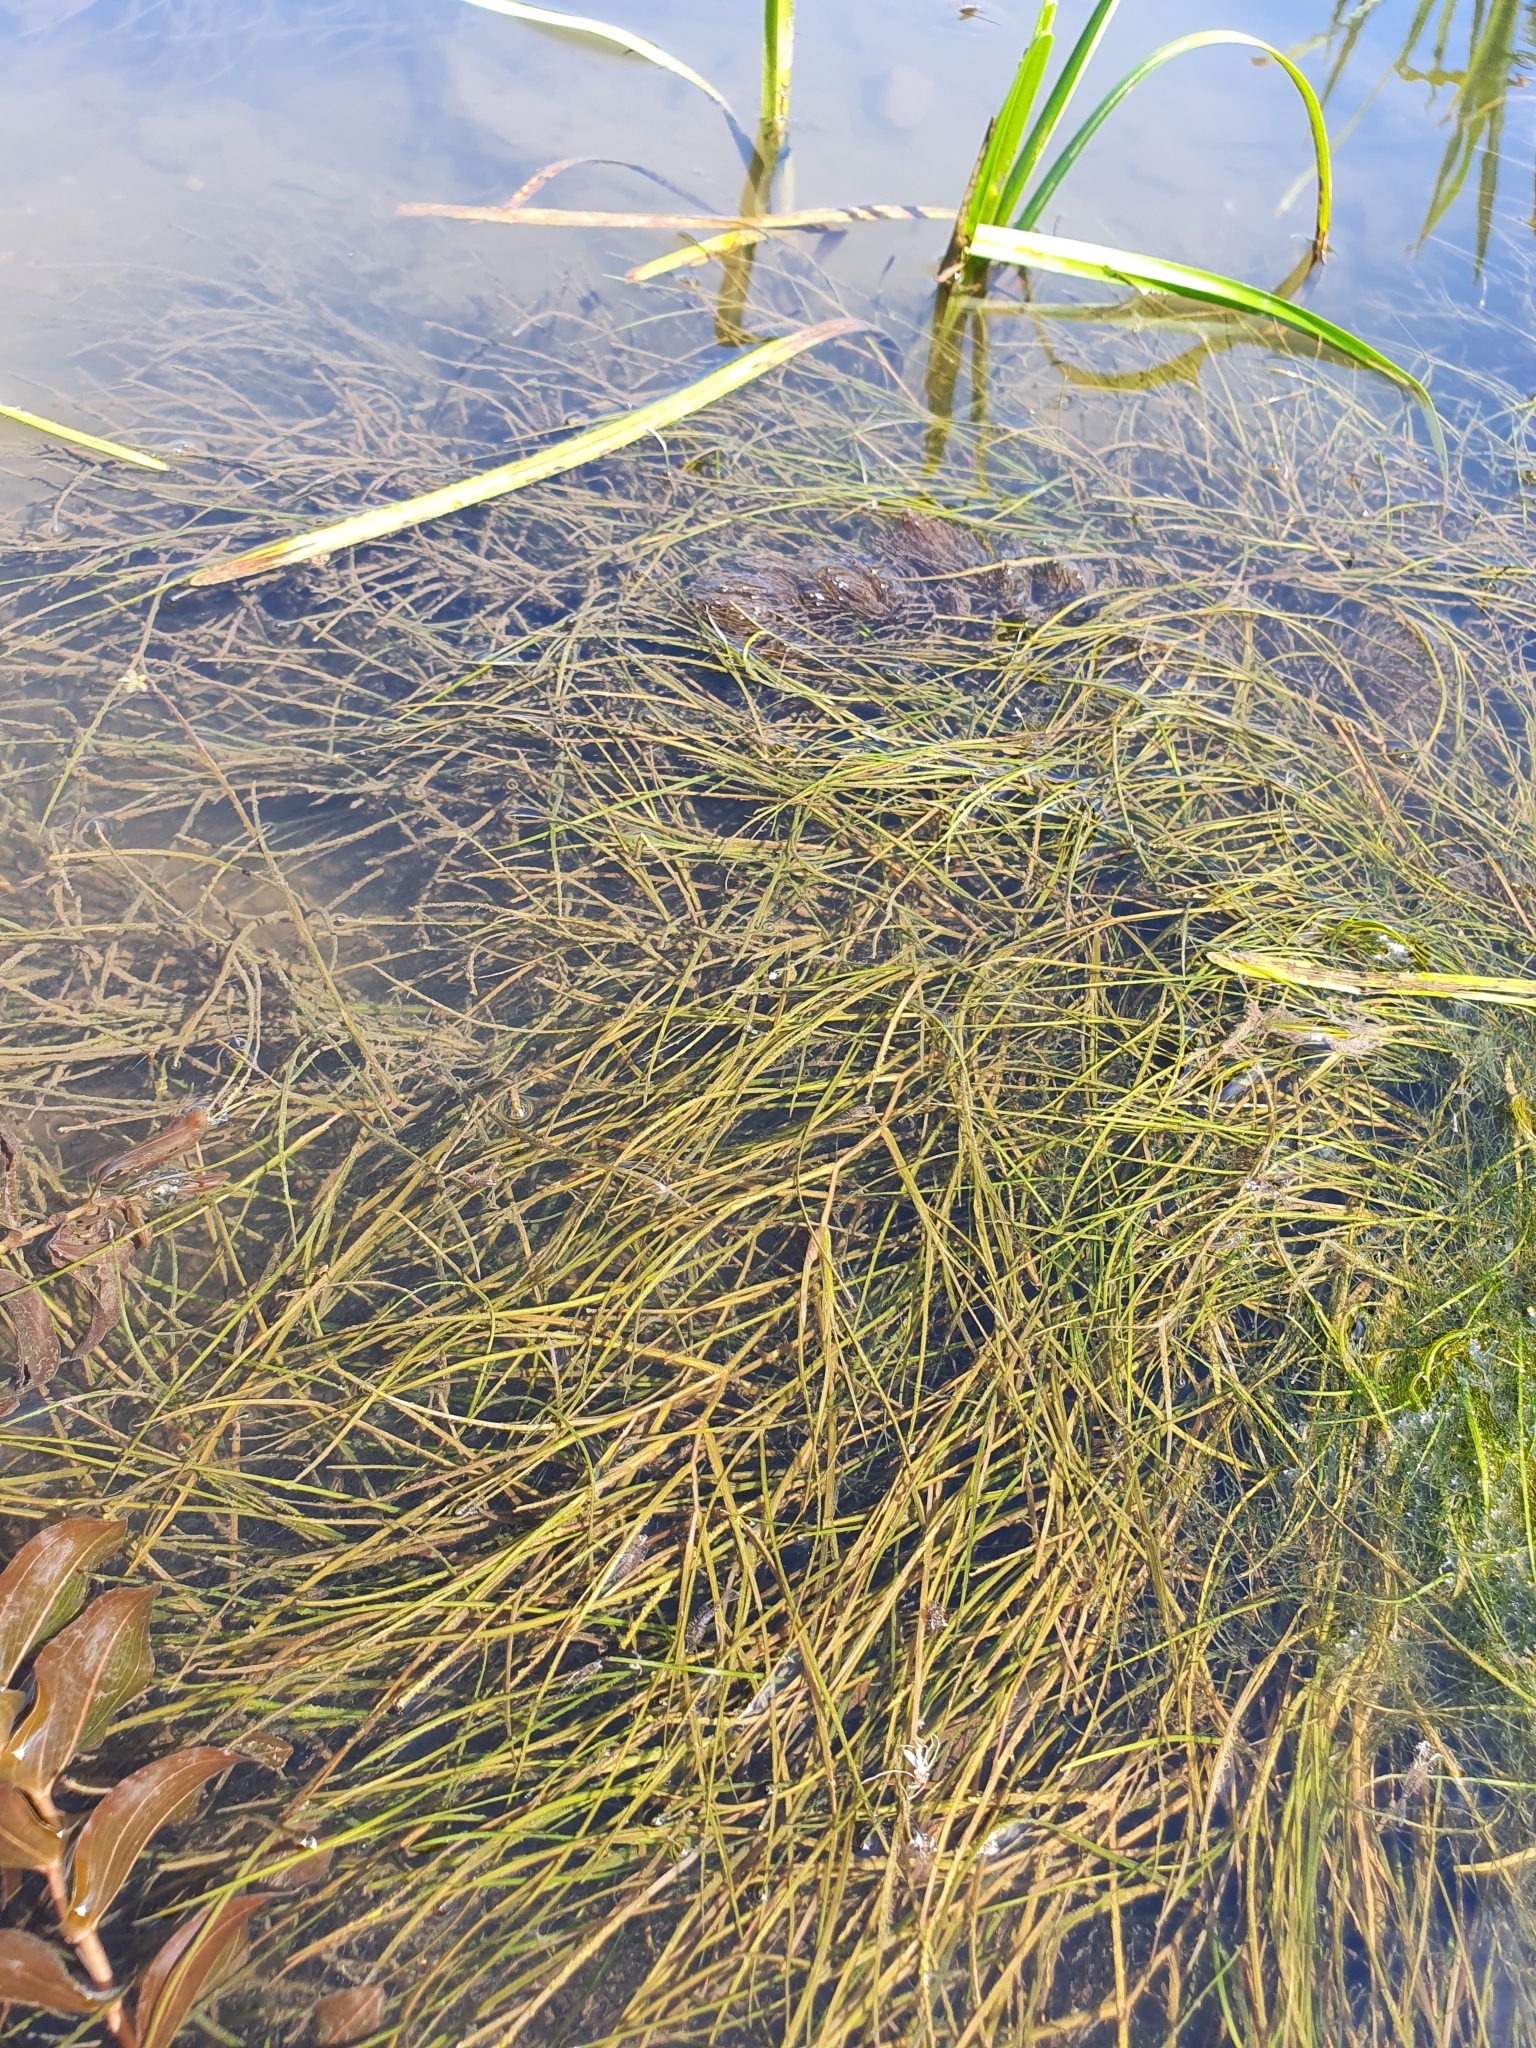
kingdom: Plantae
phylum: Tracheophyta
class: Liliopsida
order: Alismatales
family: Potamogetonaceae
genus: Stuckenia
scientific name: Stuckenia pectinata
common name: Sago pondweed
